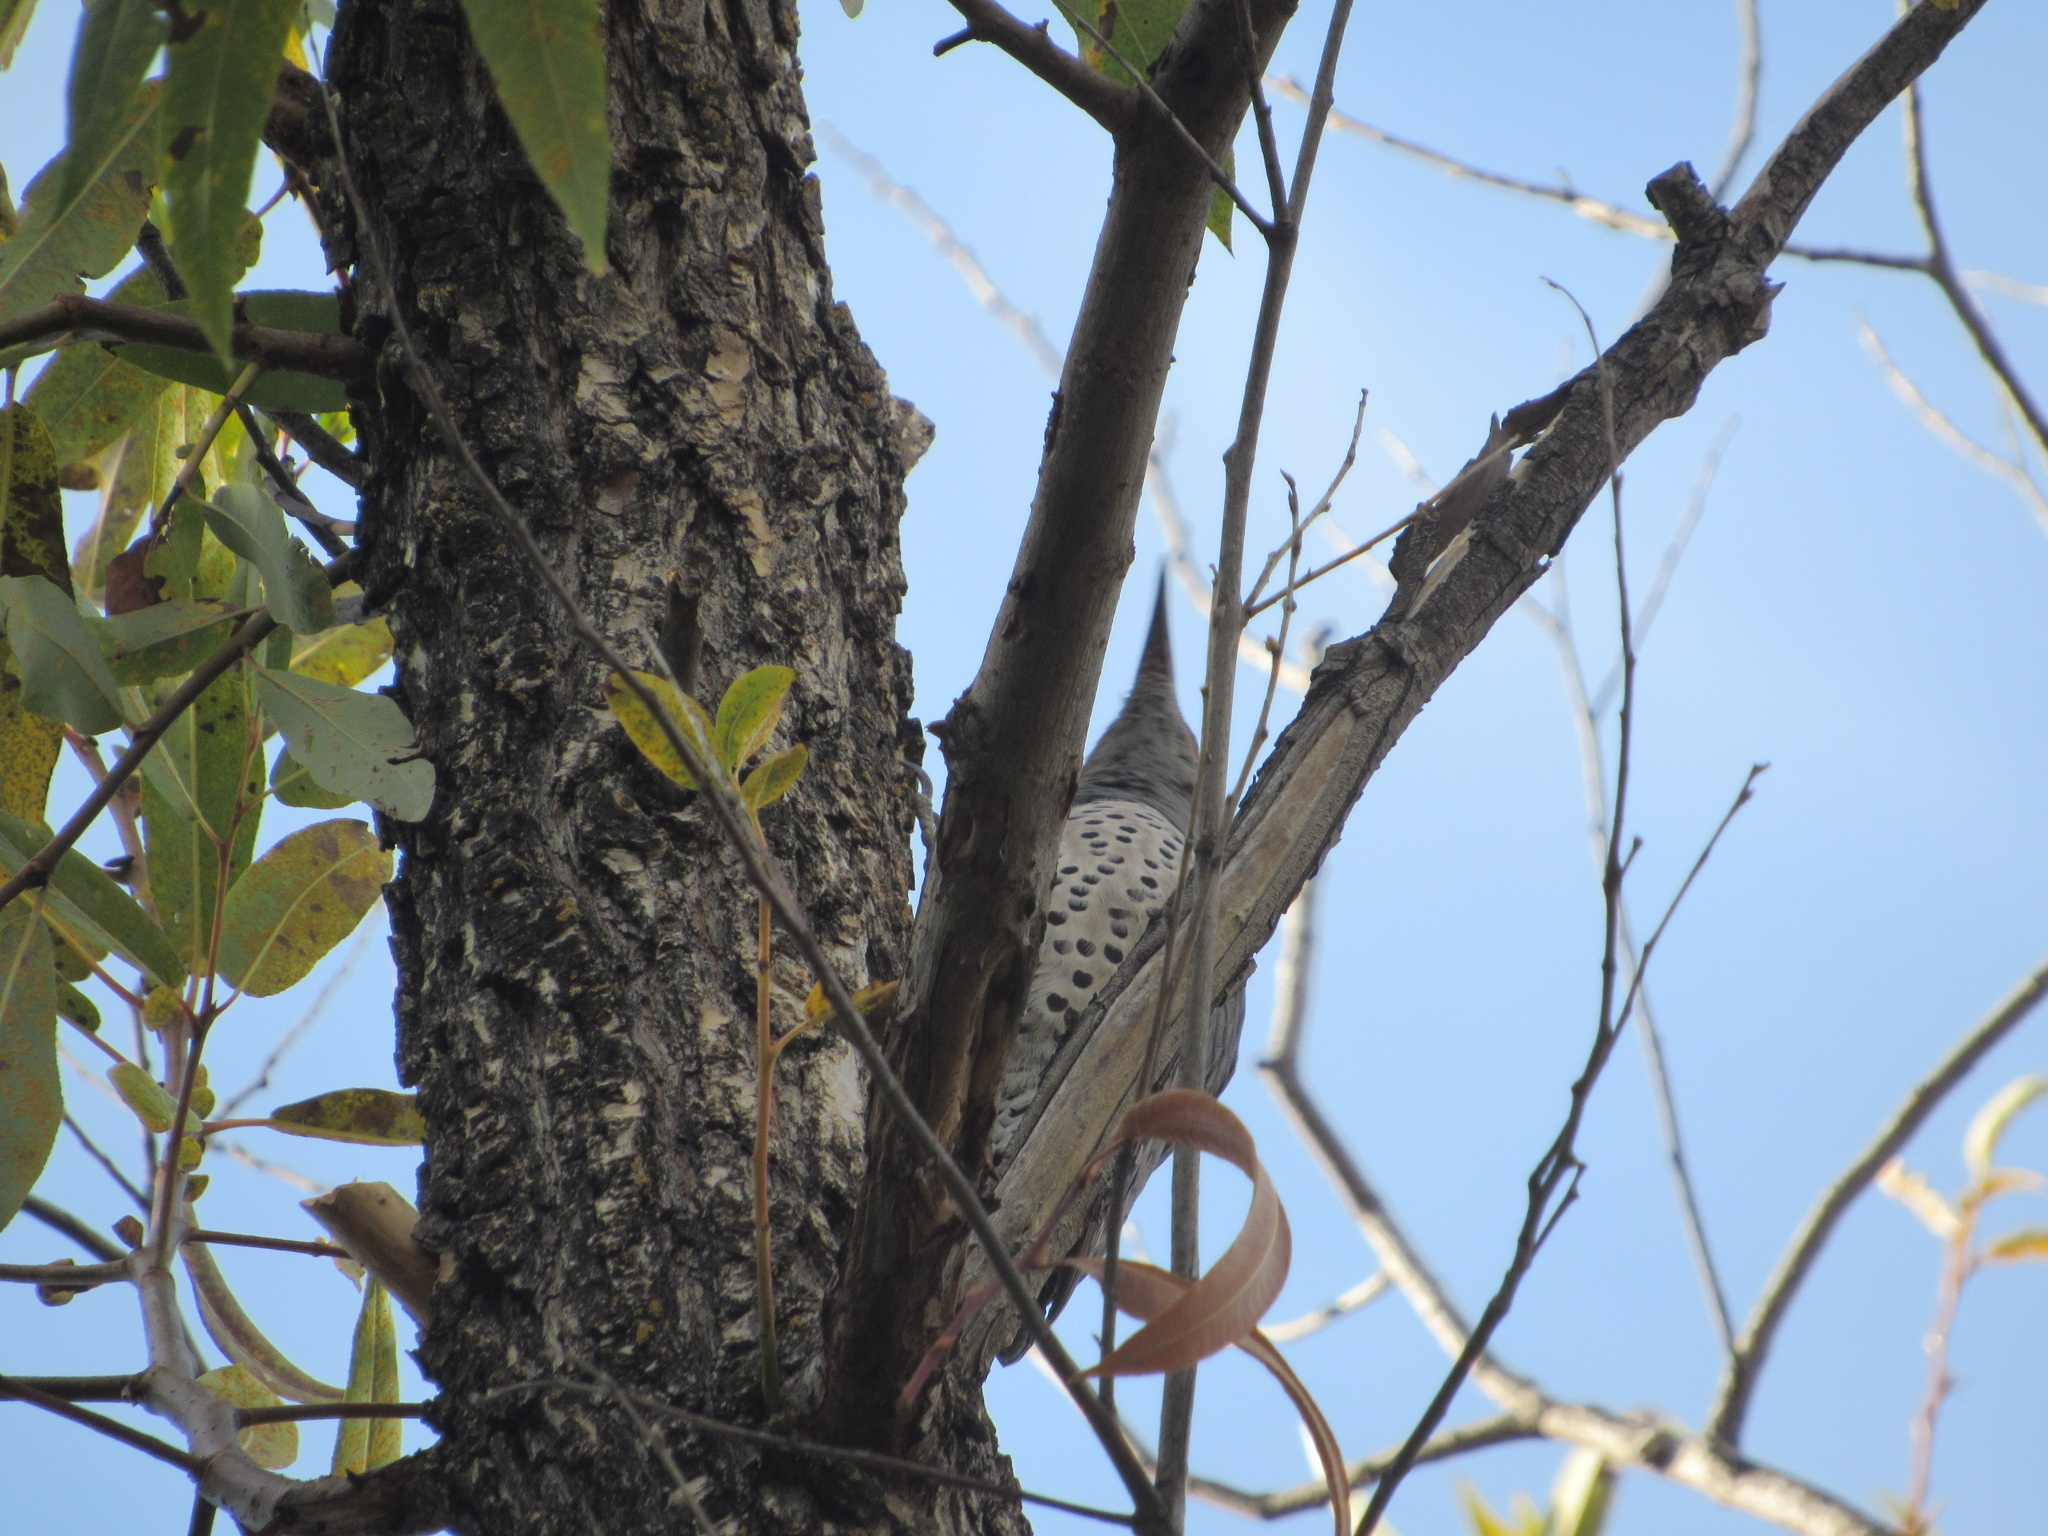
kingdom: Animalia
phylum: Chordata
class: Aves
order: Piciformes
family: Picidae
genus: Colaptes
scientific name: Colaptes auratus
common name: Northern flicker
